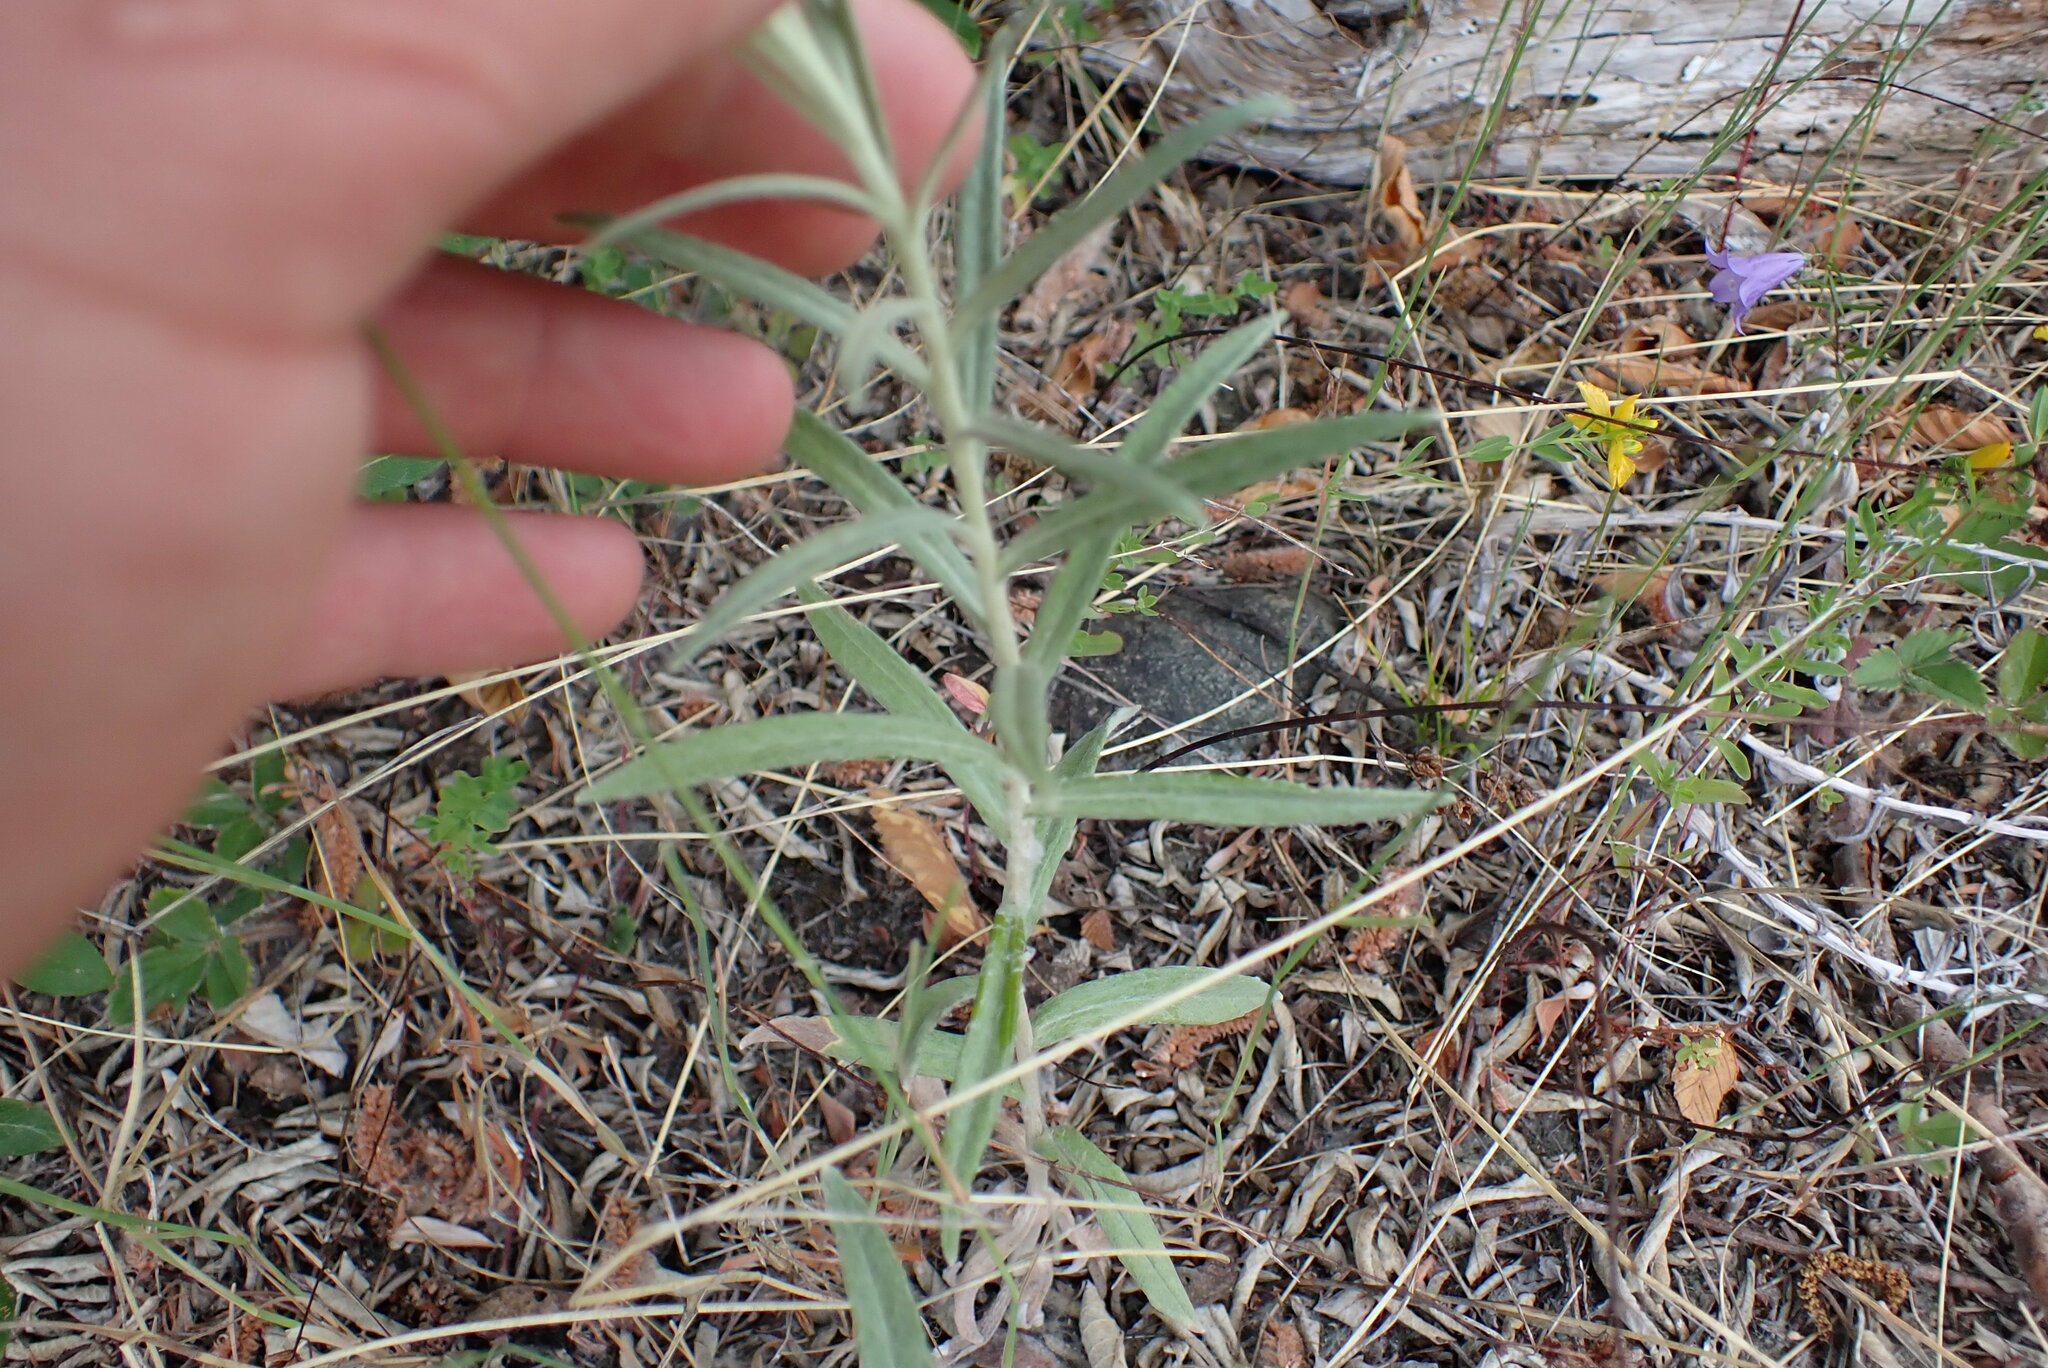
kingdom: Plantae
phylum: Tracheophyta
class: Magnoliopsida
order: Asterales
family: Asteraceae
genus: Anaphalis
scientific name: Anaphalis margaritacea
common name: Pearly everlasting
